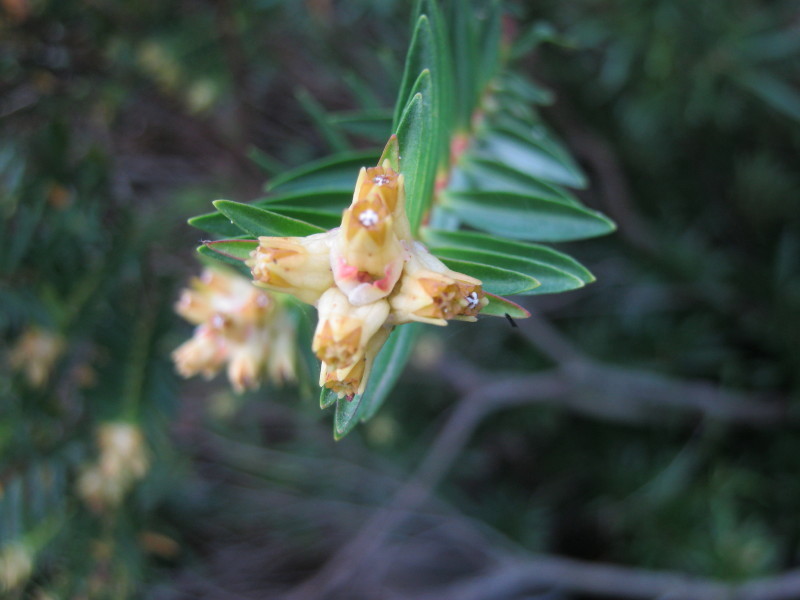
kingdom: Plantae
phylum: Tracheophyta
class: Magnoliopsida
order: Myrtales
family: Penaeaceae
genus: Penaea
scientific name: Penaea cneorum
